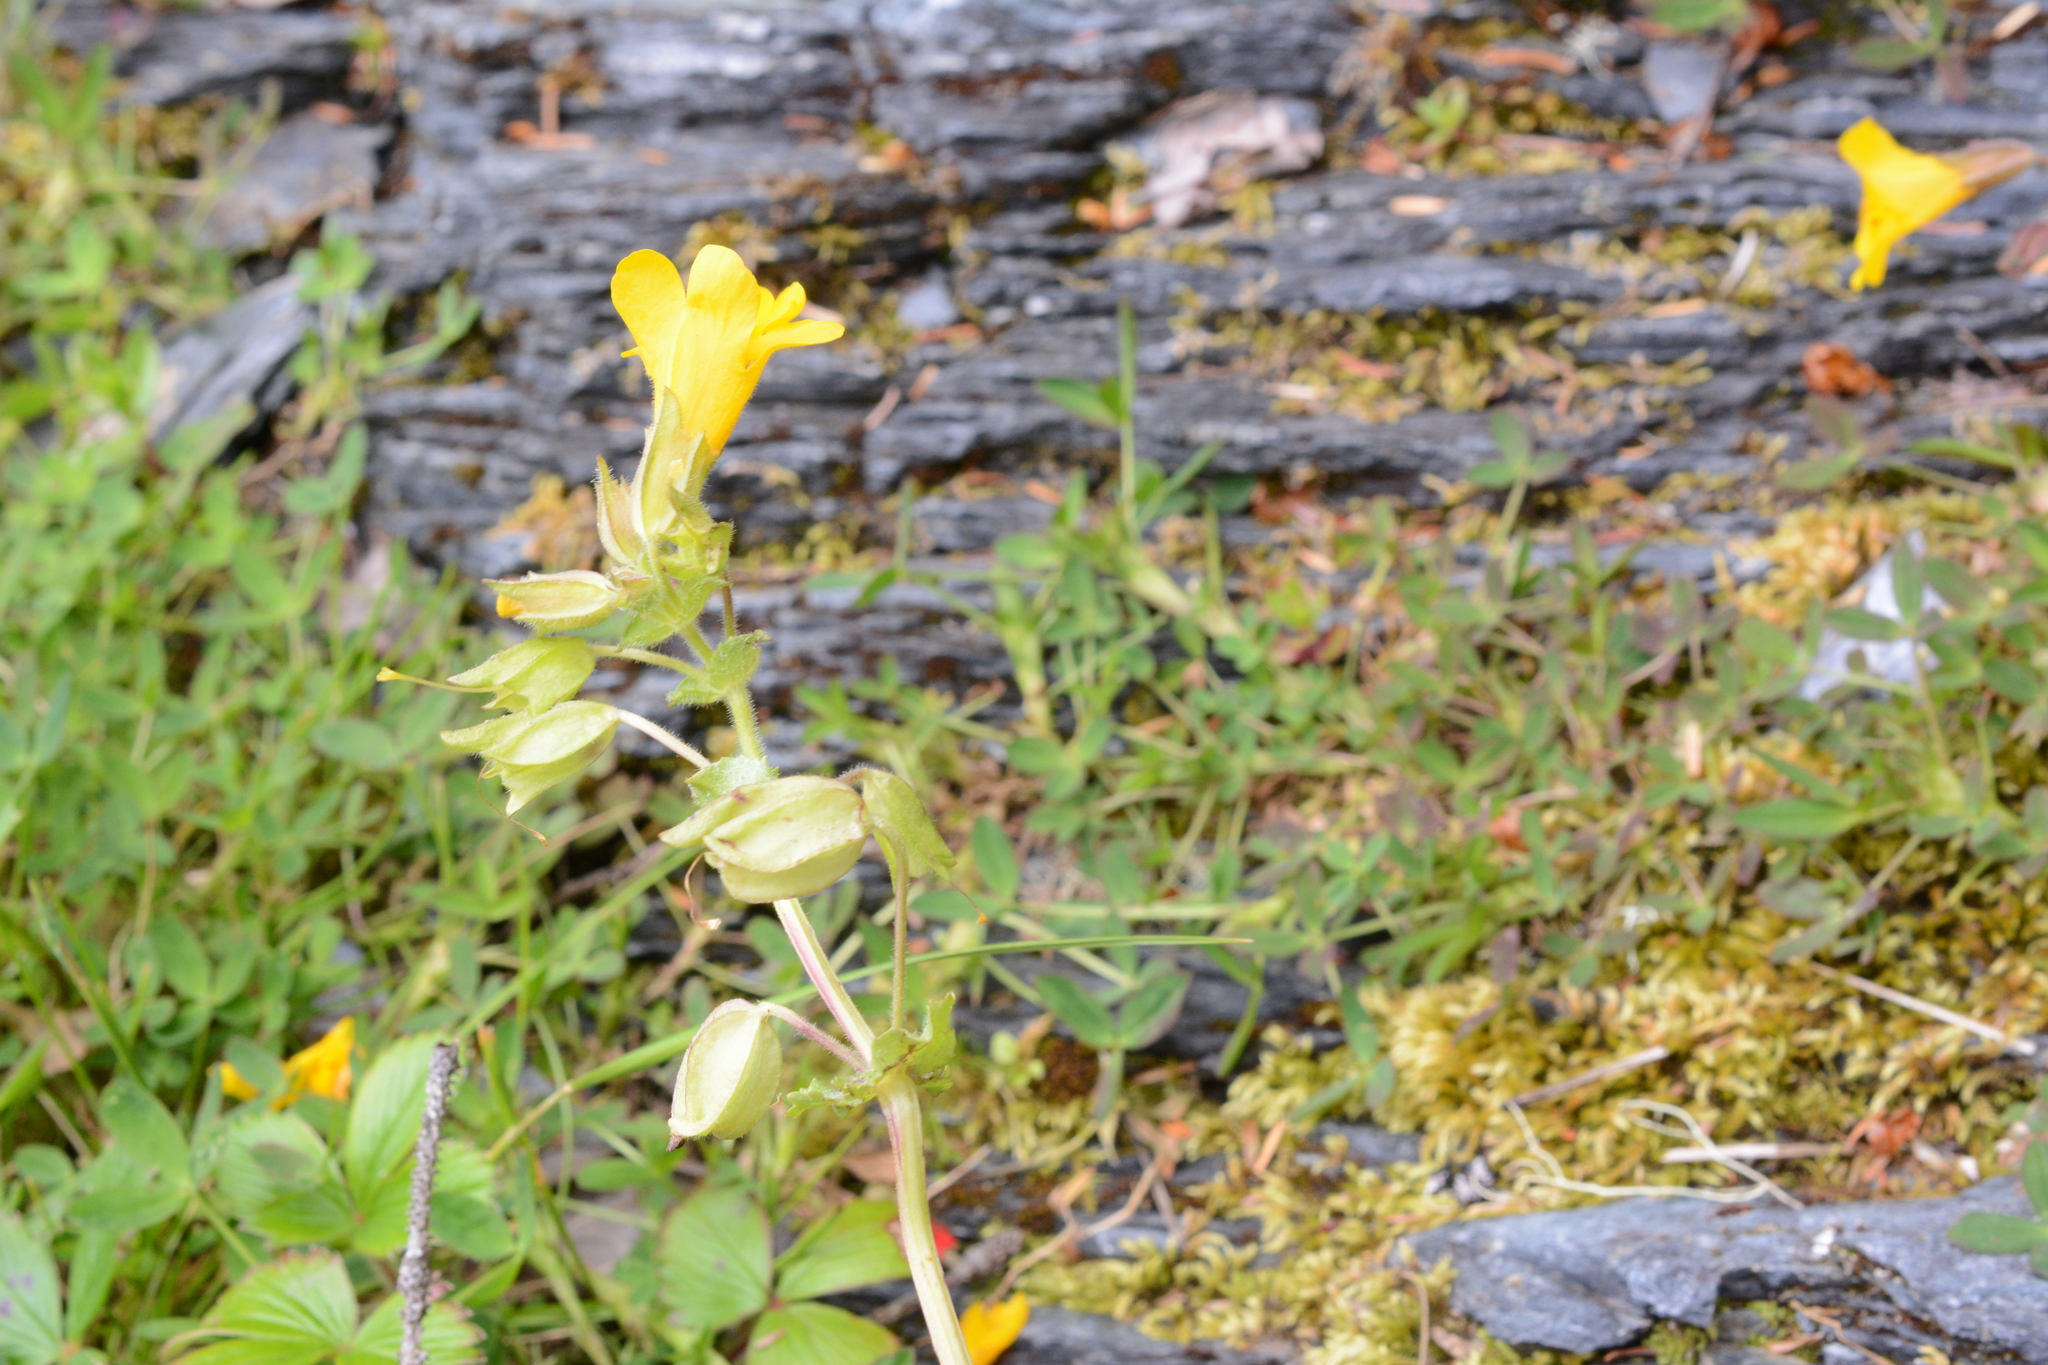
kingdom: Plantae
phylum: Tracheophyta
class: Magnoliopsida
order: Lamiales
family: Phrymaceae
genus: Erythranthe
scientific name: Erythranthe guttata
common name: Monkeyflower
